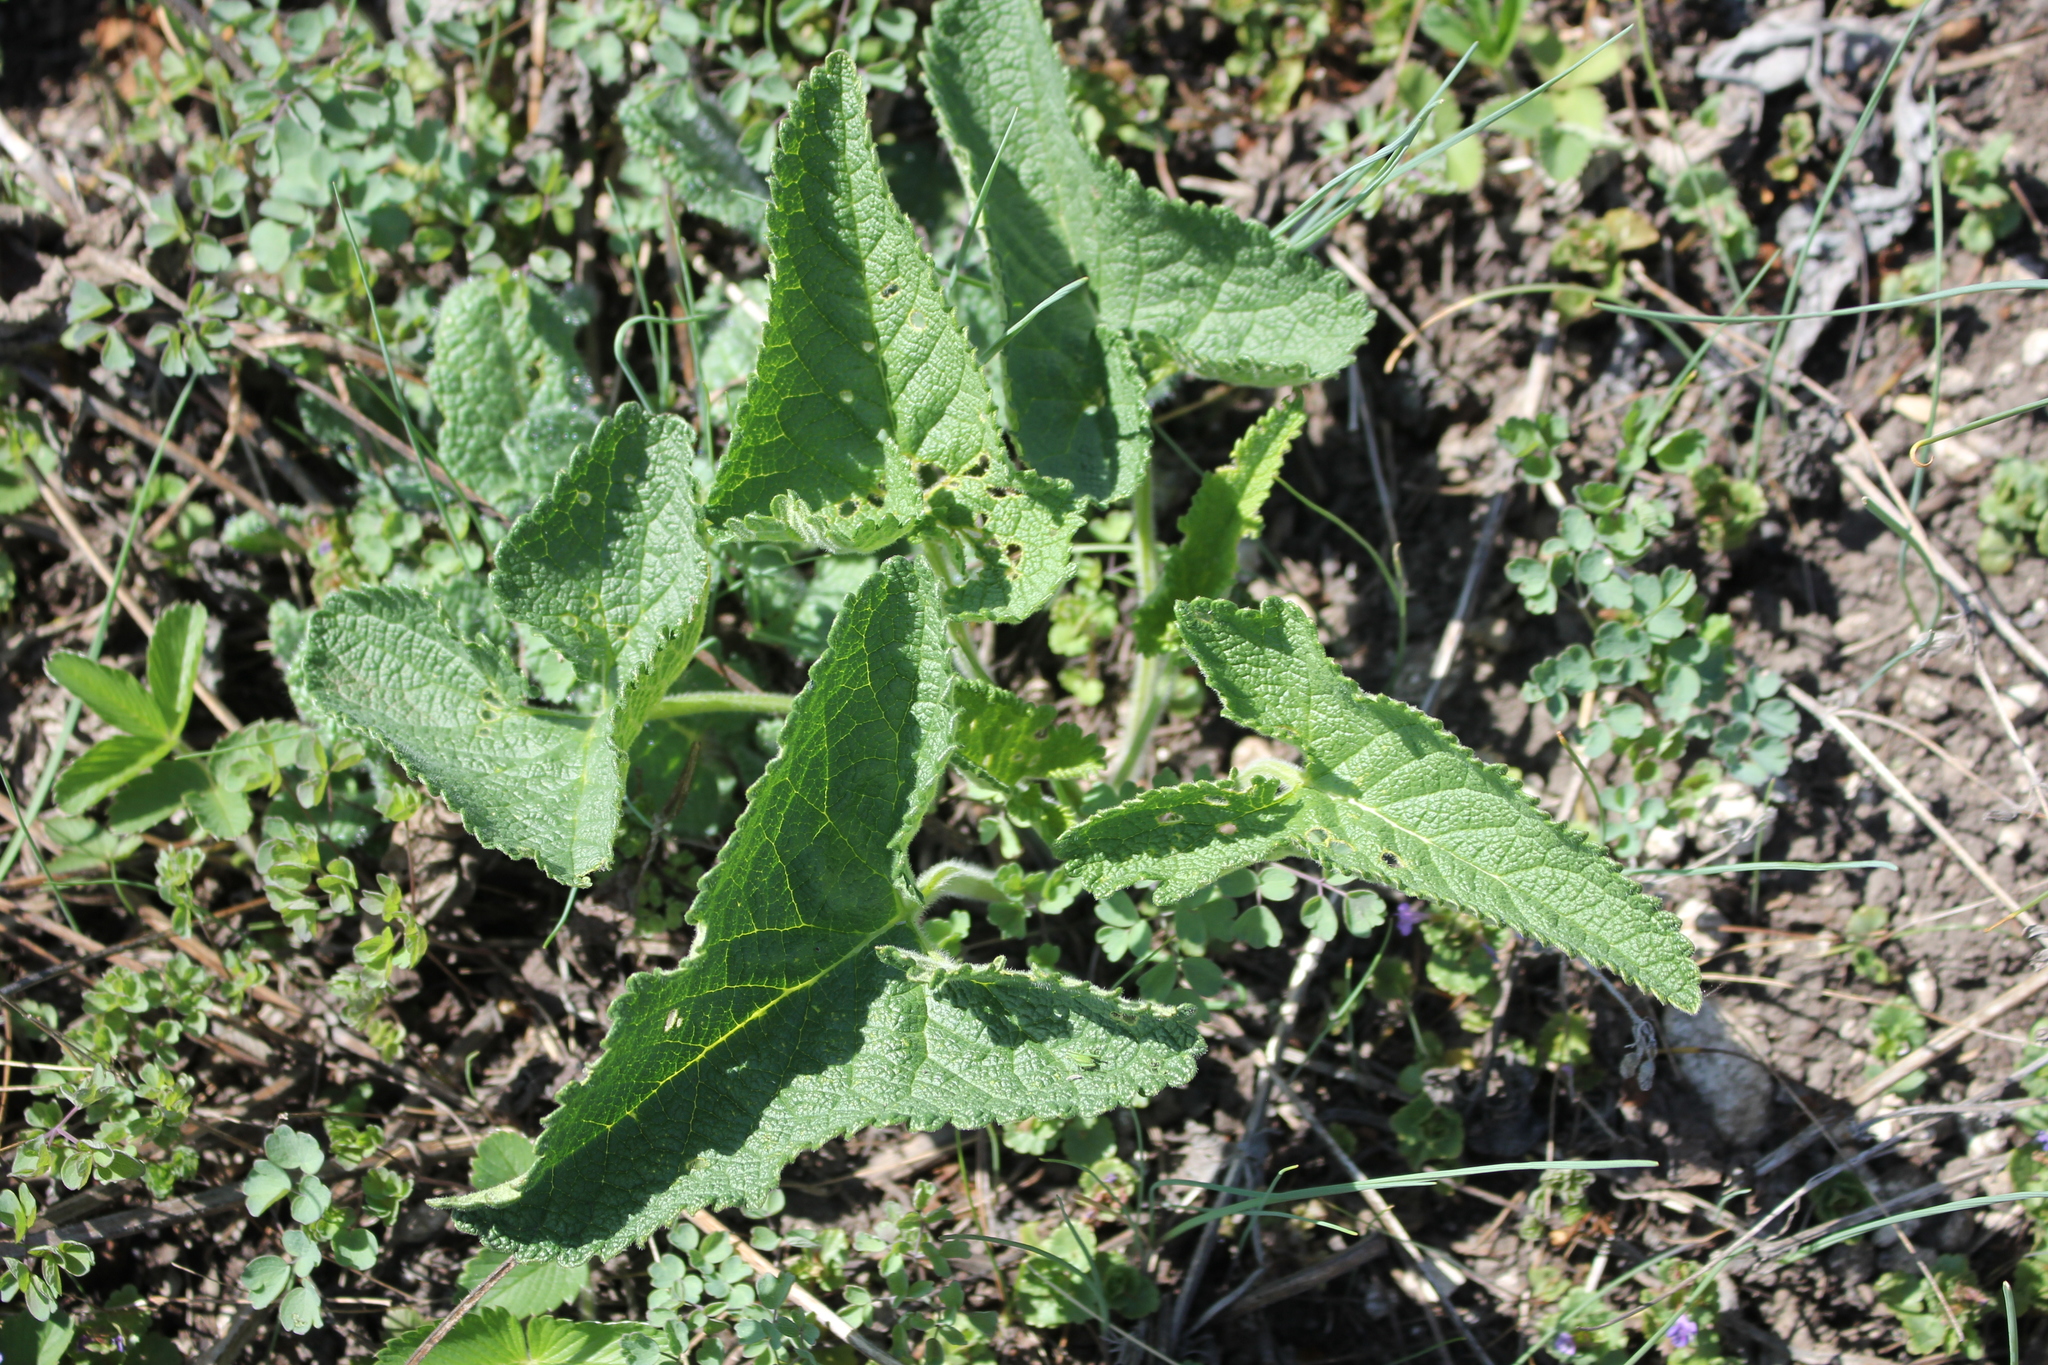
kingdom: Plantae
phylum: Tracheophyta
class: Magnoliopsida
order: Lamiales
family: Lamiaceae
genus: Phlomoides
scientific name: Phlomoides tuberosa
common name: Tuberous jerusalem sage
